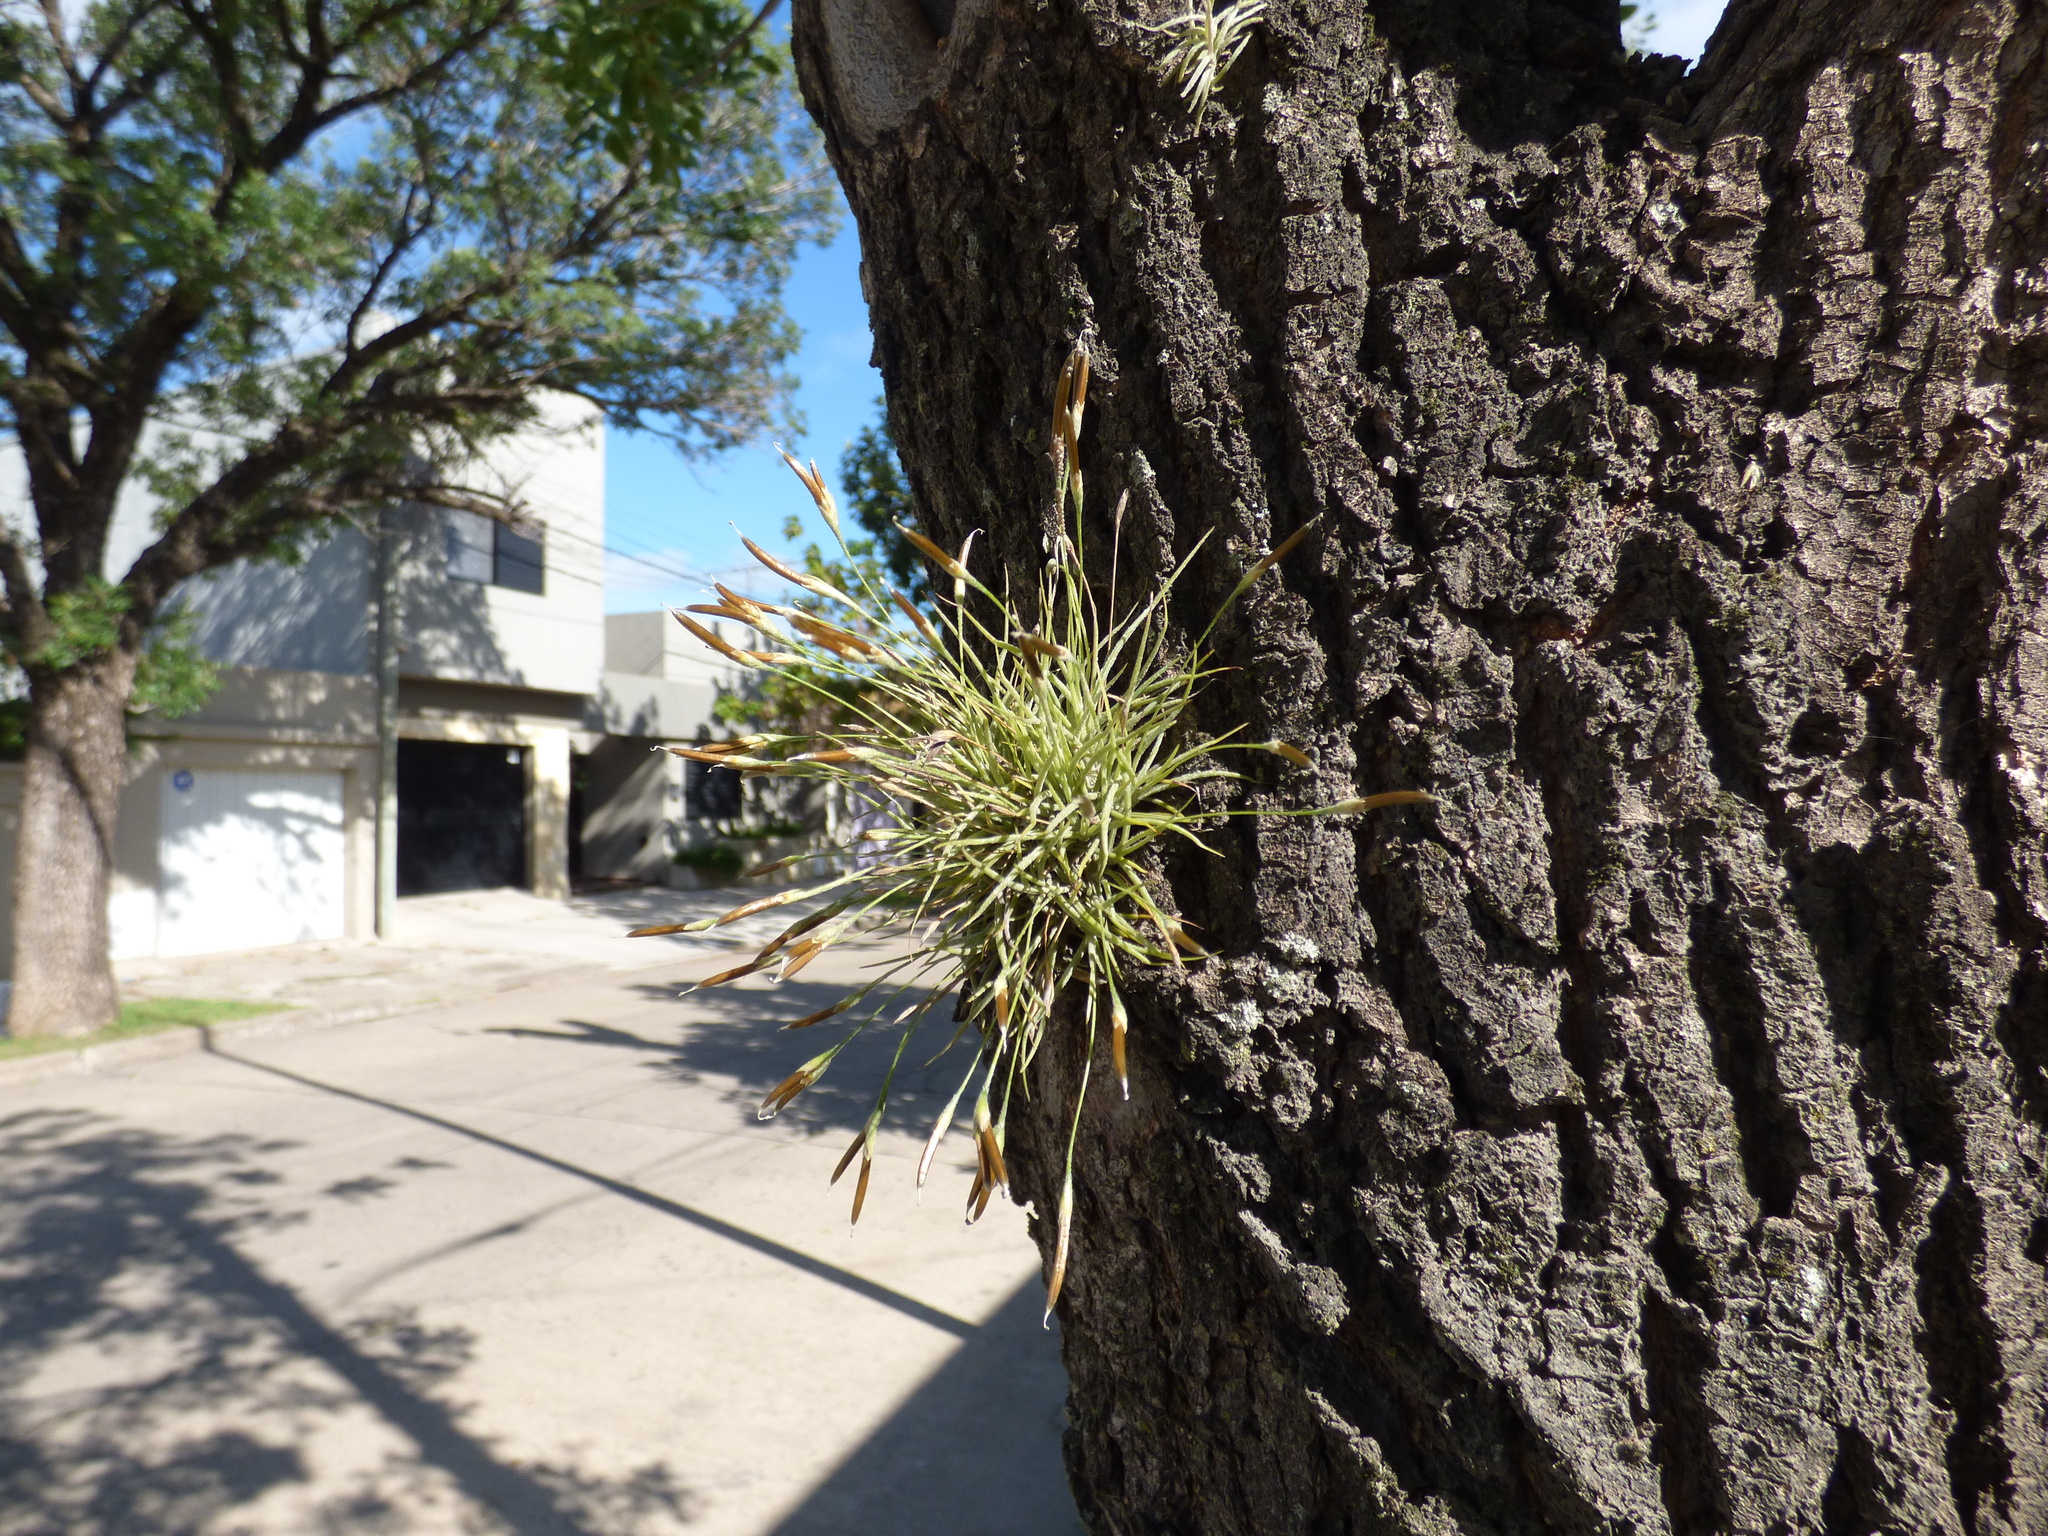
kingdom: Plantae
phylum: Tracheophyta
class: Liliopsida
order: Poales
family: Bromeliaceae
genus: Tillandsia
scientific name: Tillandsia recurvata
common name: Small ballmoss
